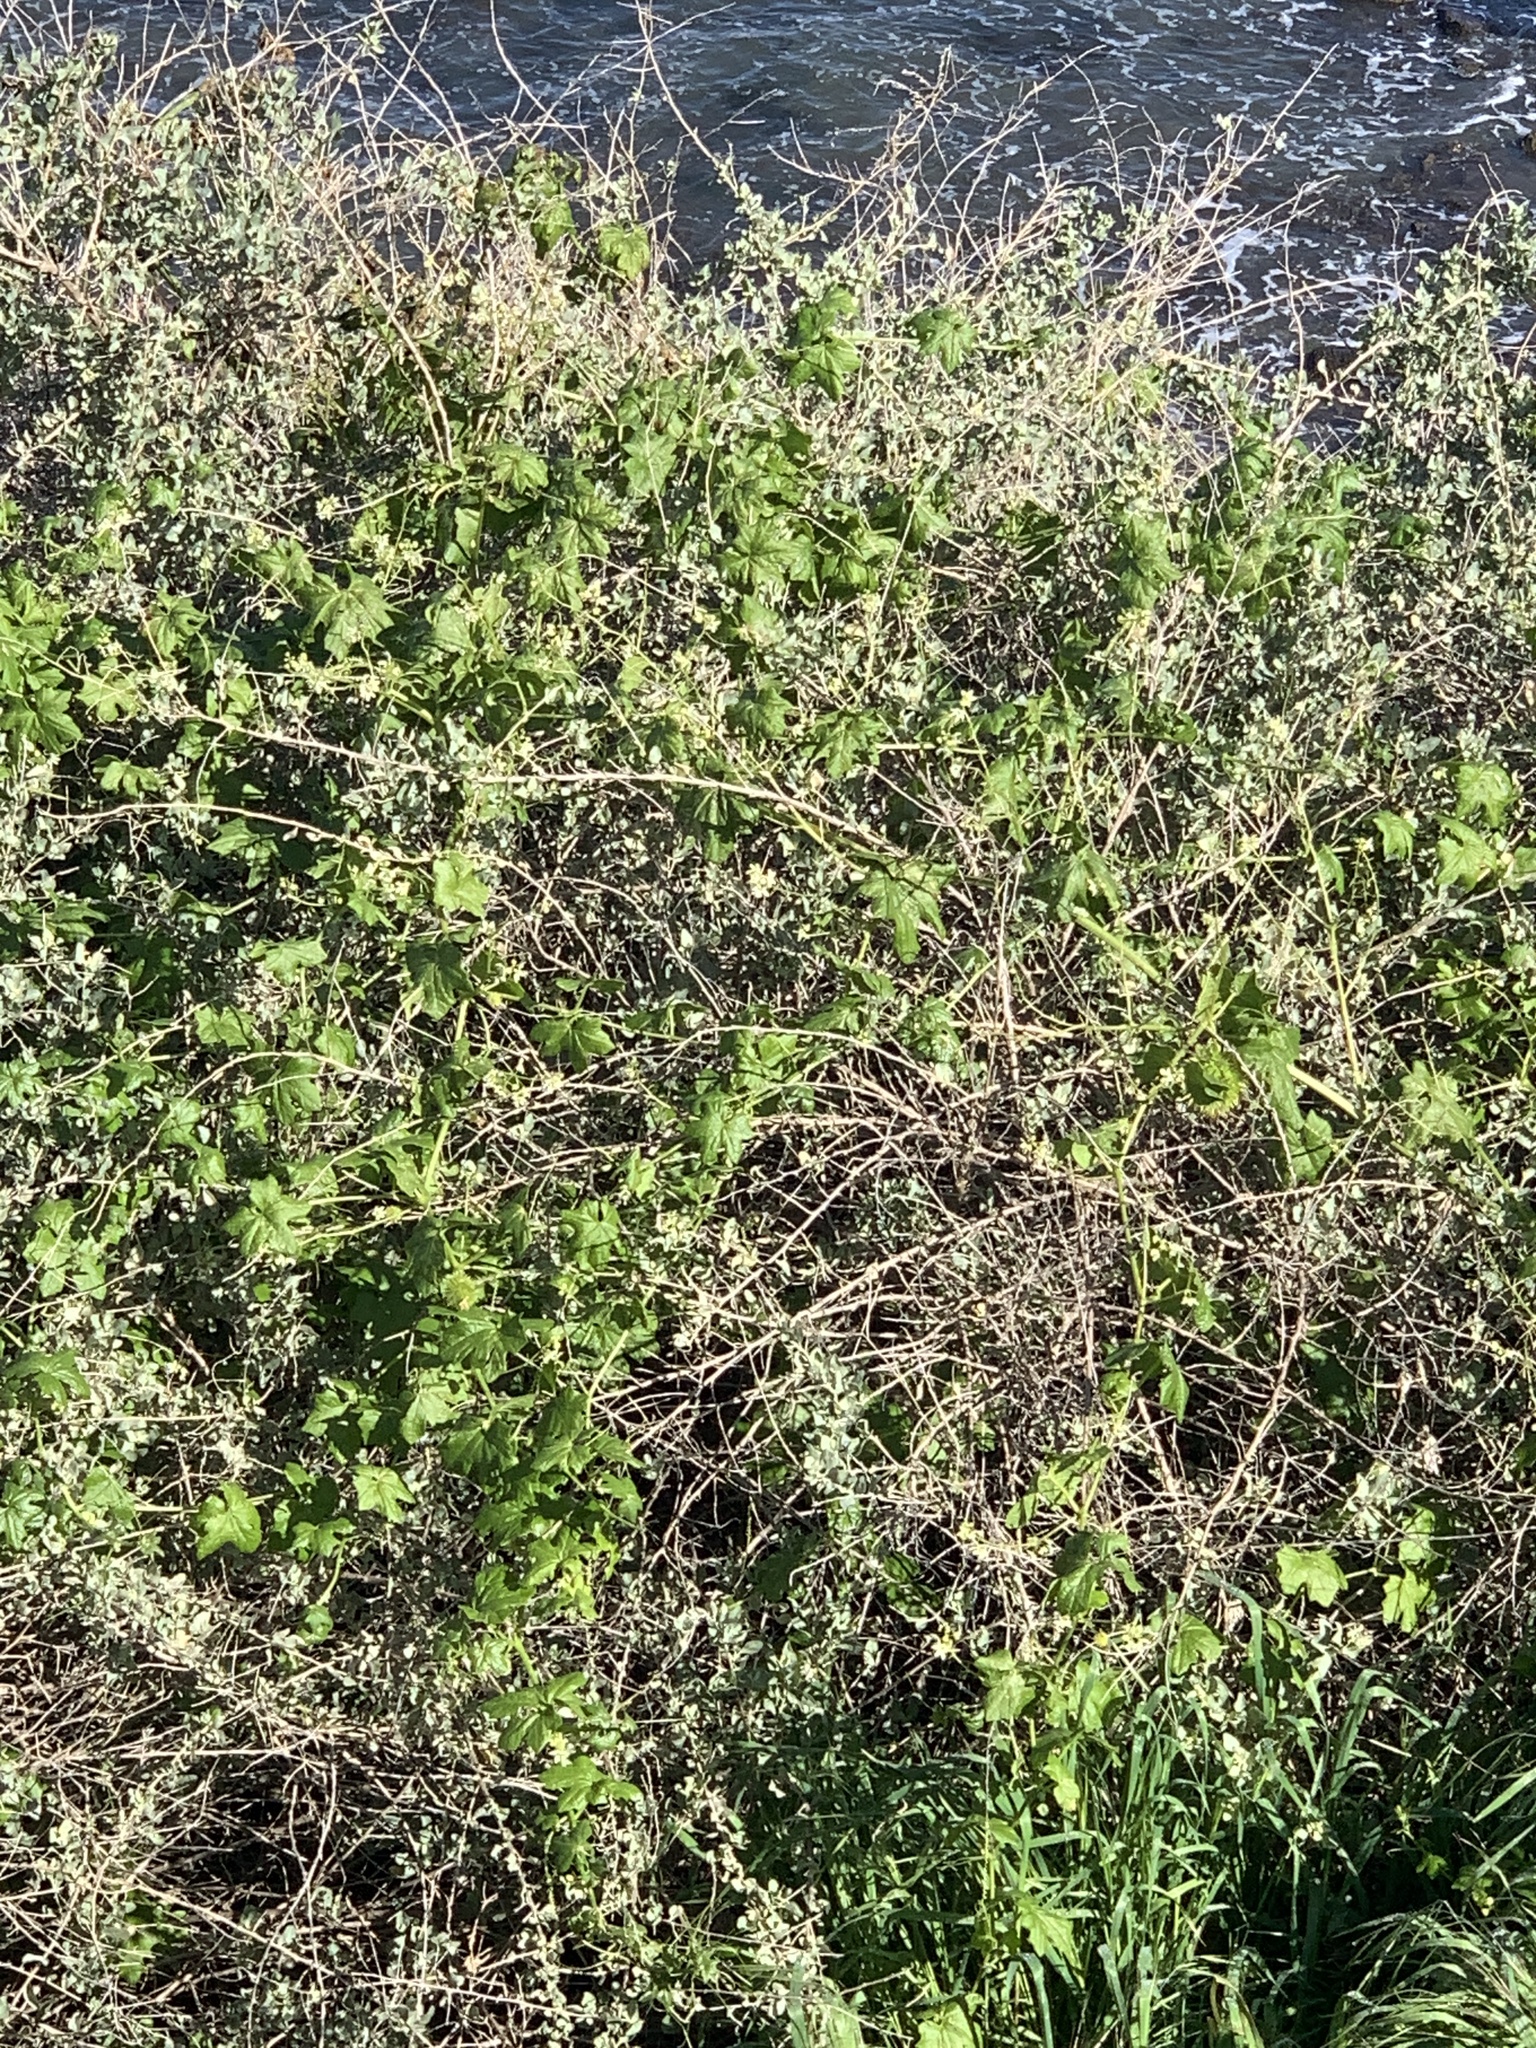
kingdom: Plantae
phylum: Tracheophyta
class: Magnoliopsida
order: Cucurbitales
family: Cucurbitaceae
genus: Marah
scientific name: Marah macrocarpa
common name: Cucamonga manroot
